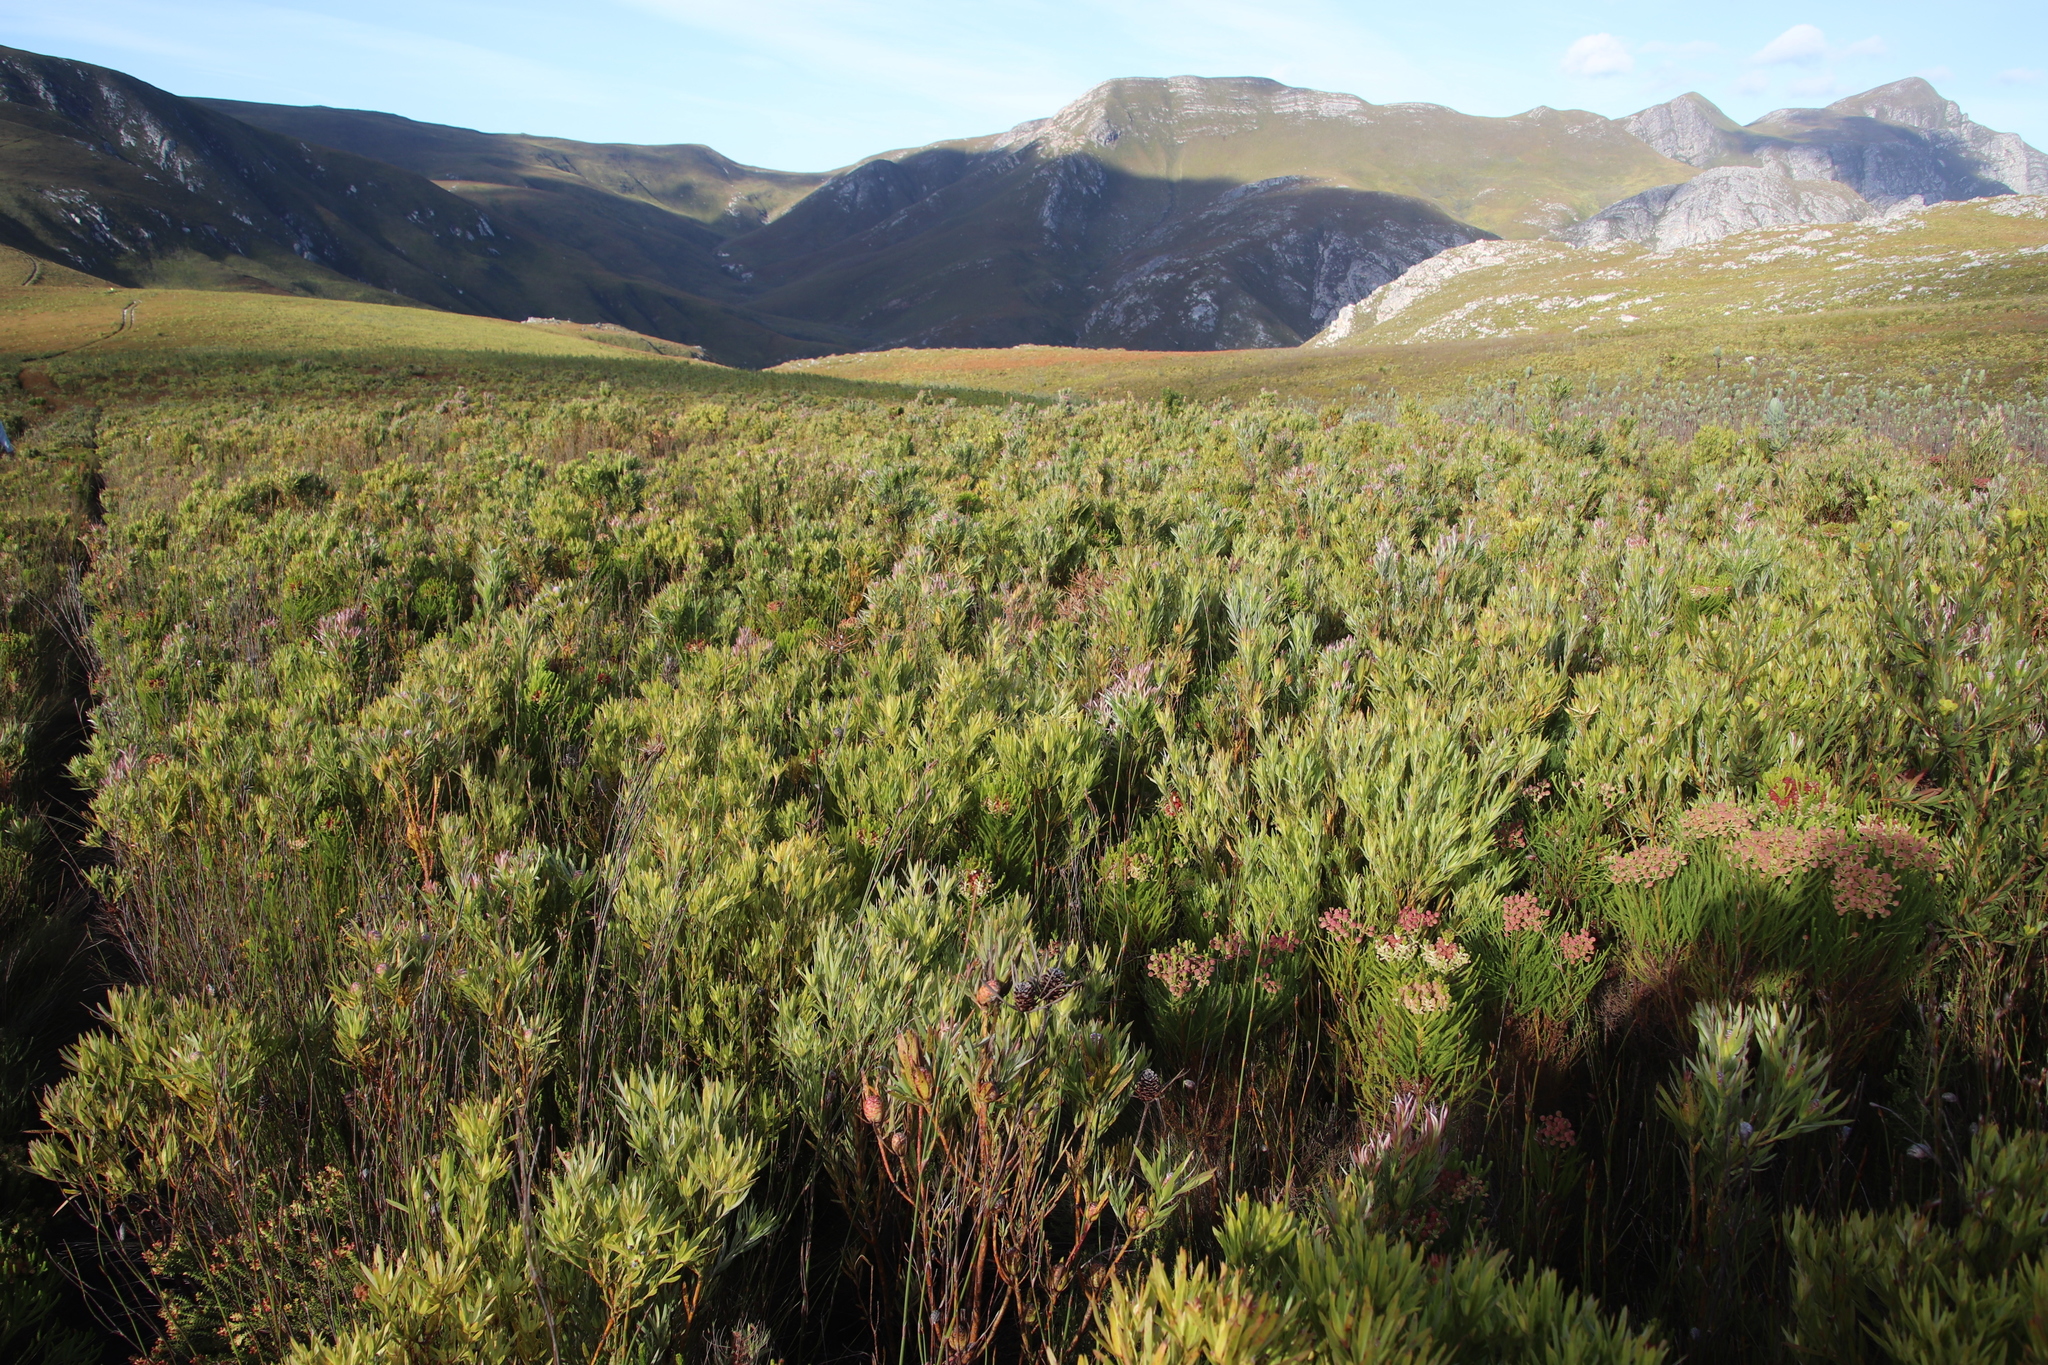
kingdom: Plantae
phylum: Tracheophyta
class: Magnoliopsida
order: Proteales
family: Proteaceae
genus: Leucadendron
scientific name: Leucadendron xanthoconus
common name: Sickle-leaf conebush
